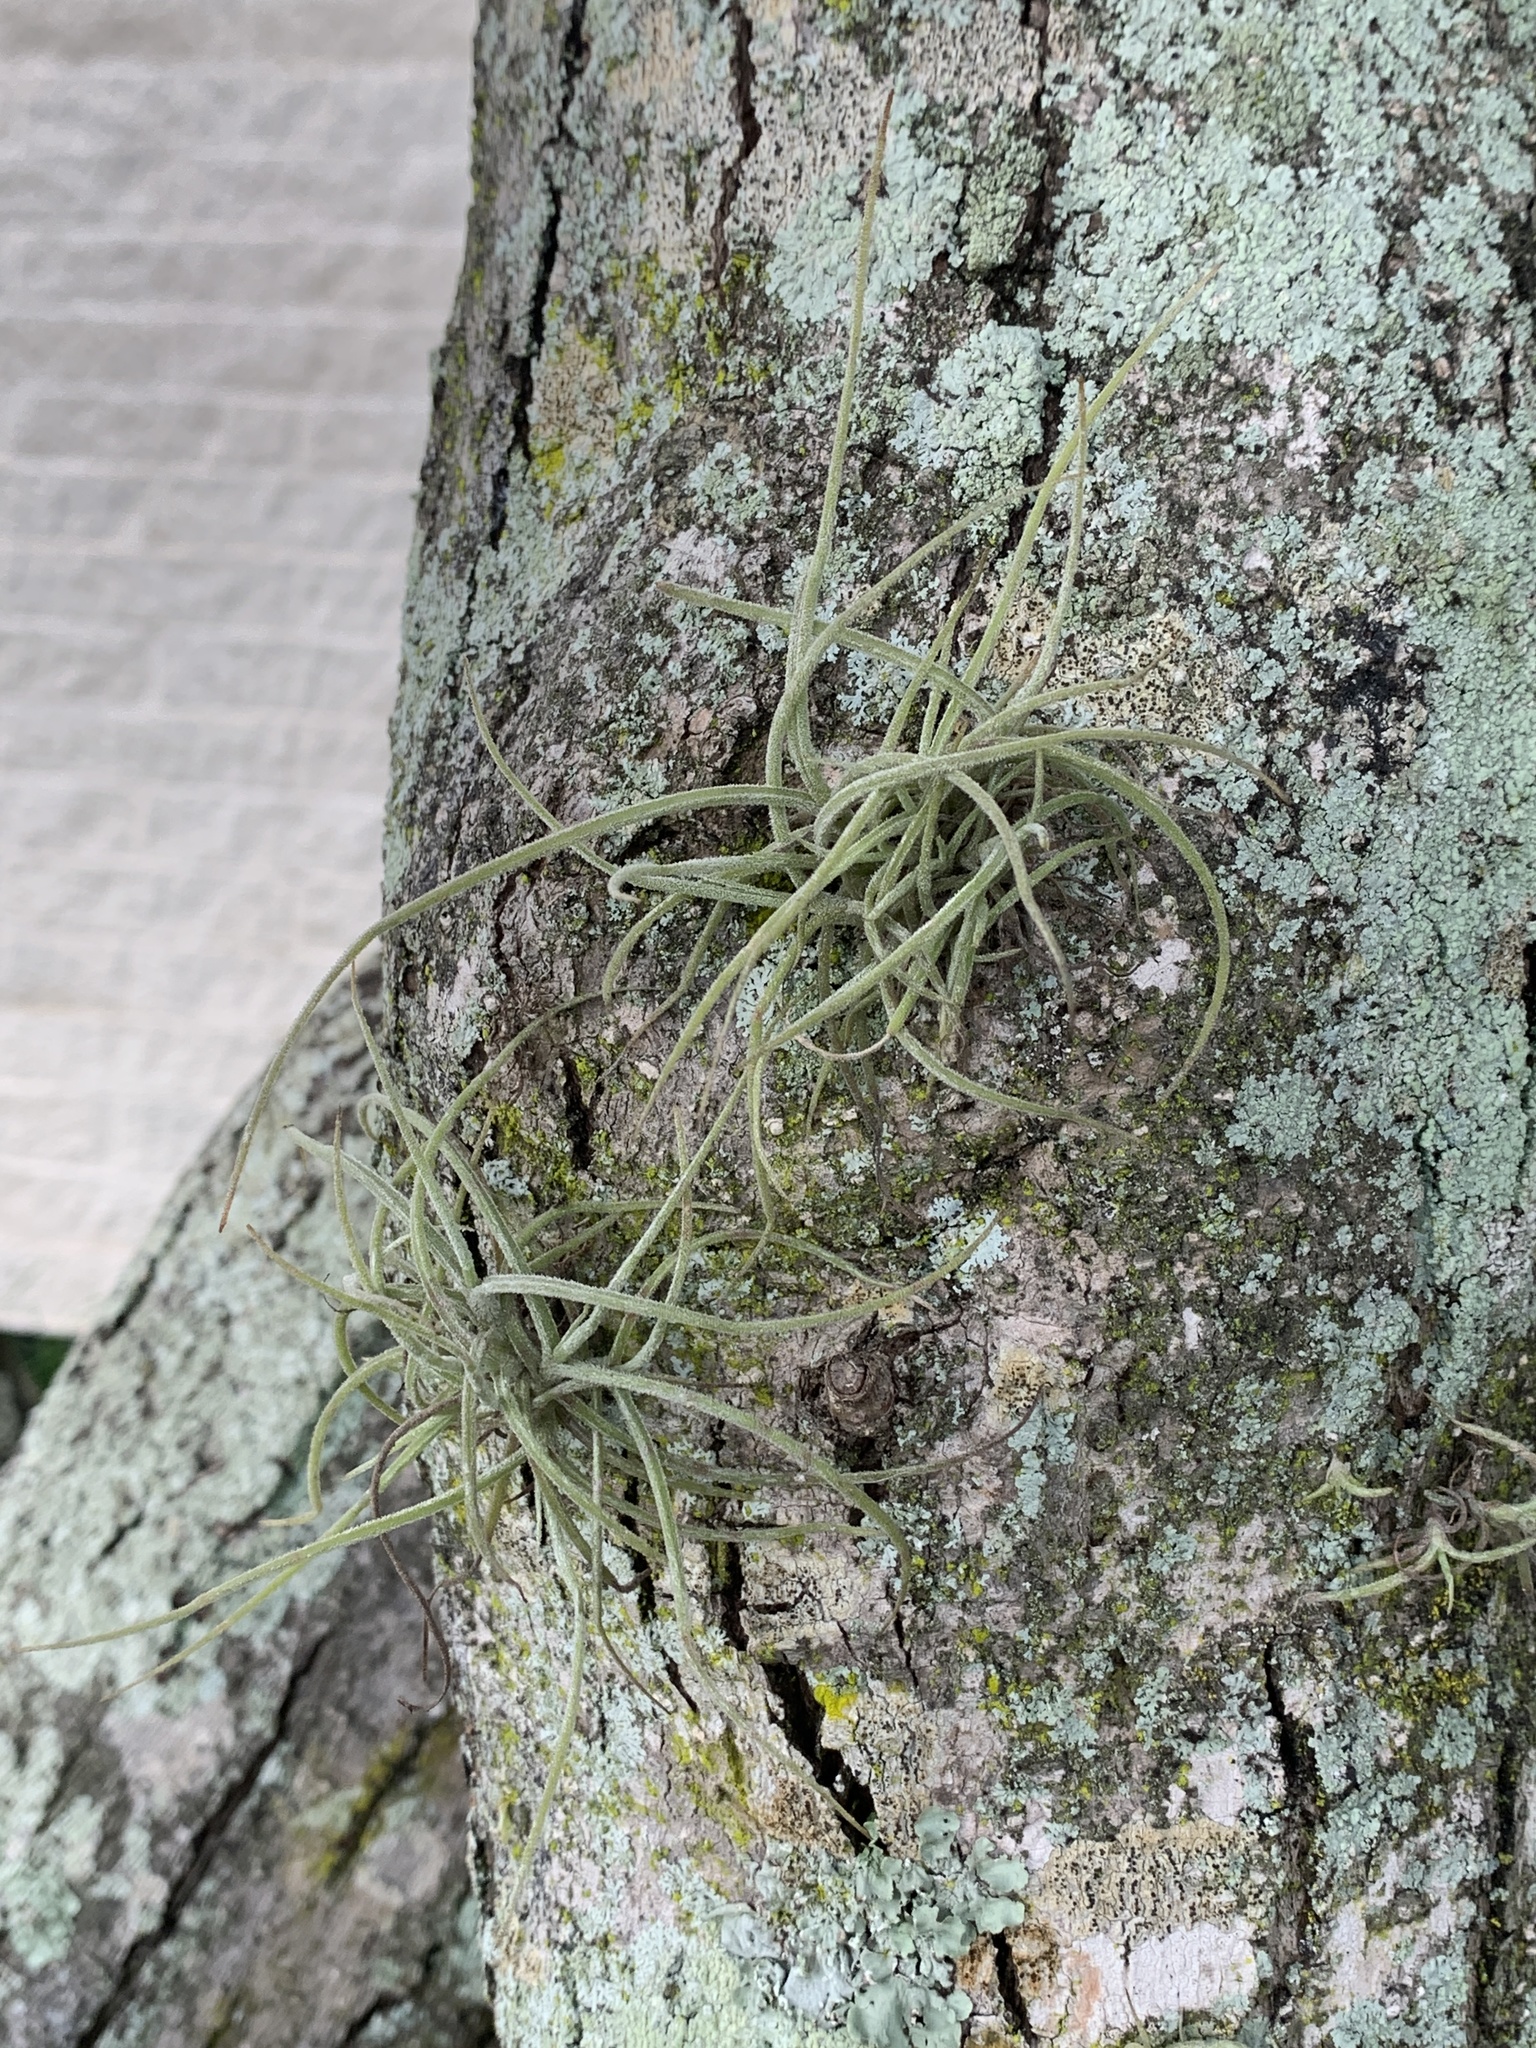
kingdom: Plantae
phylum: Tracheophyta
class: Liliopsida
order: Poales
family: Bromeliaceae
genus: Tillandsia
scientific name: Tillandsia recurvata
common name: Small ballmoss
